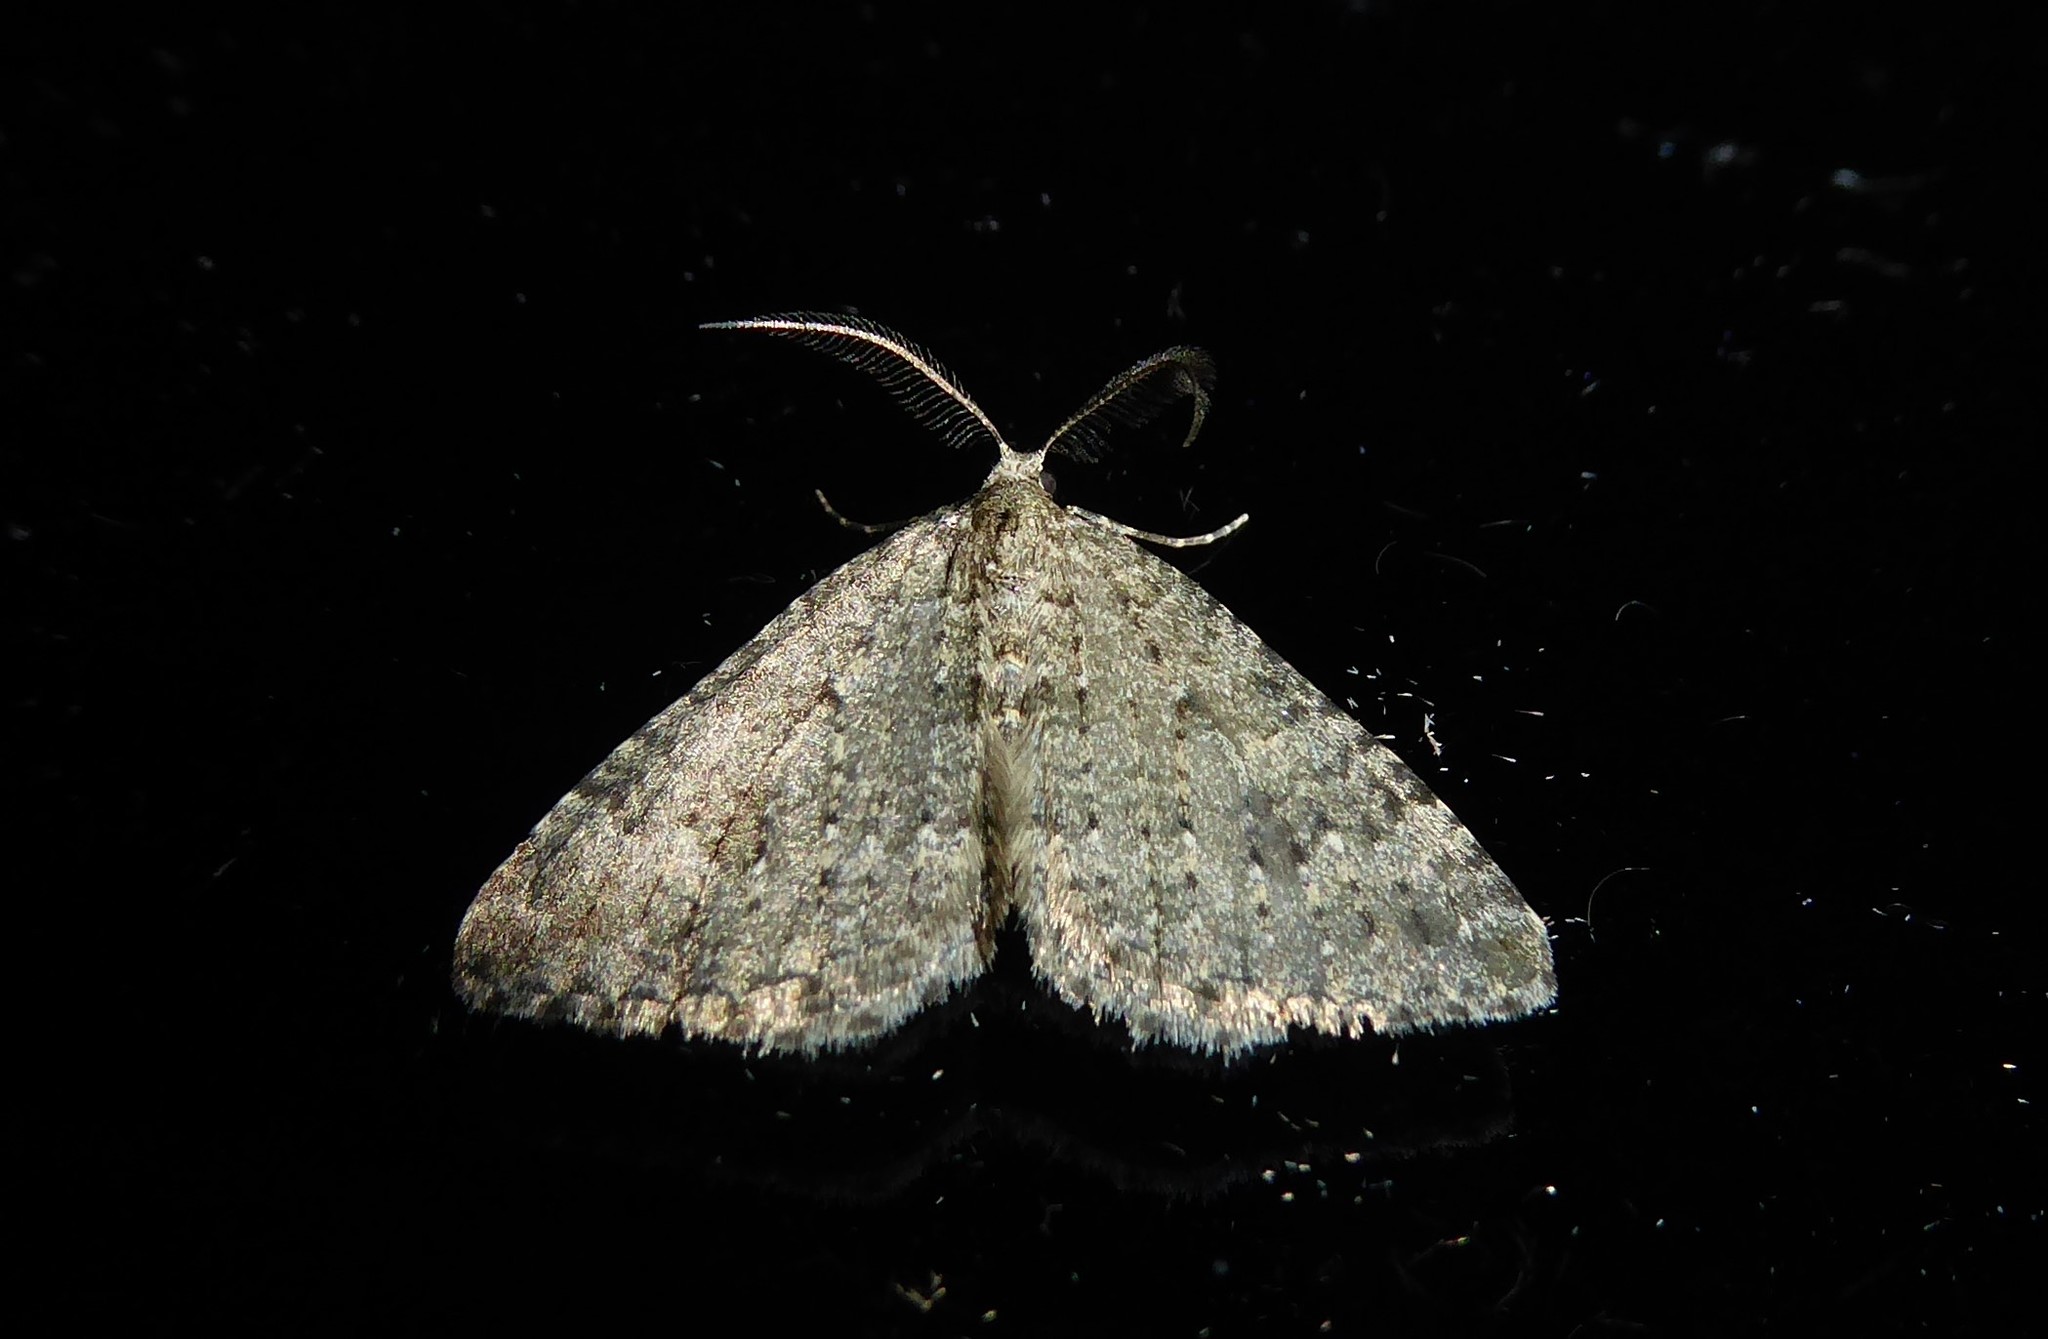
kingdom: Animalia
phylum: Arthropoda
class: Insecta
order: Lepidoptera
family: Geometridae
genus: Helastia
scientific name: Helastia corcularia
